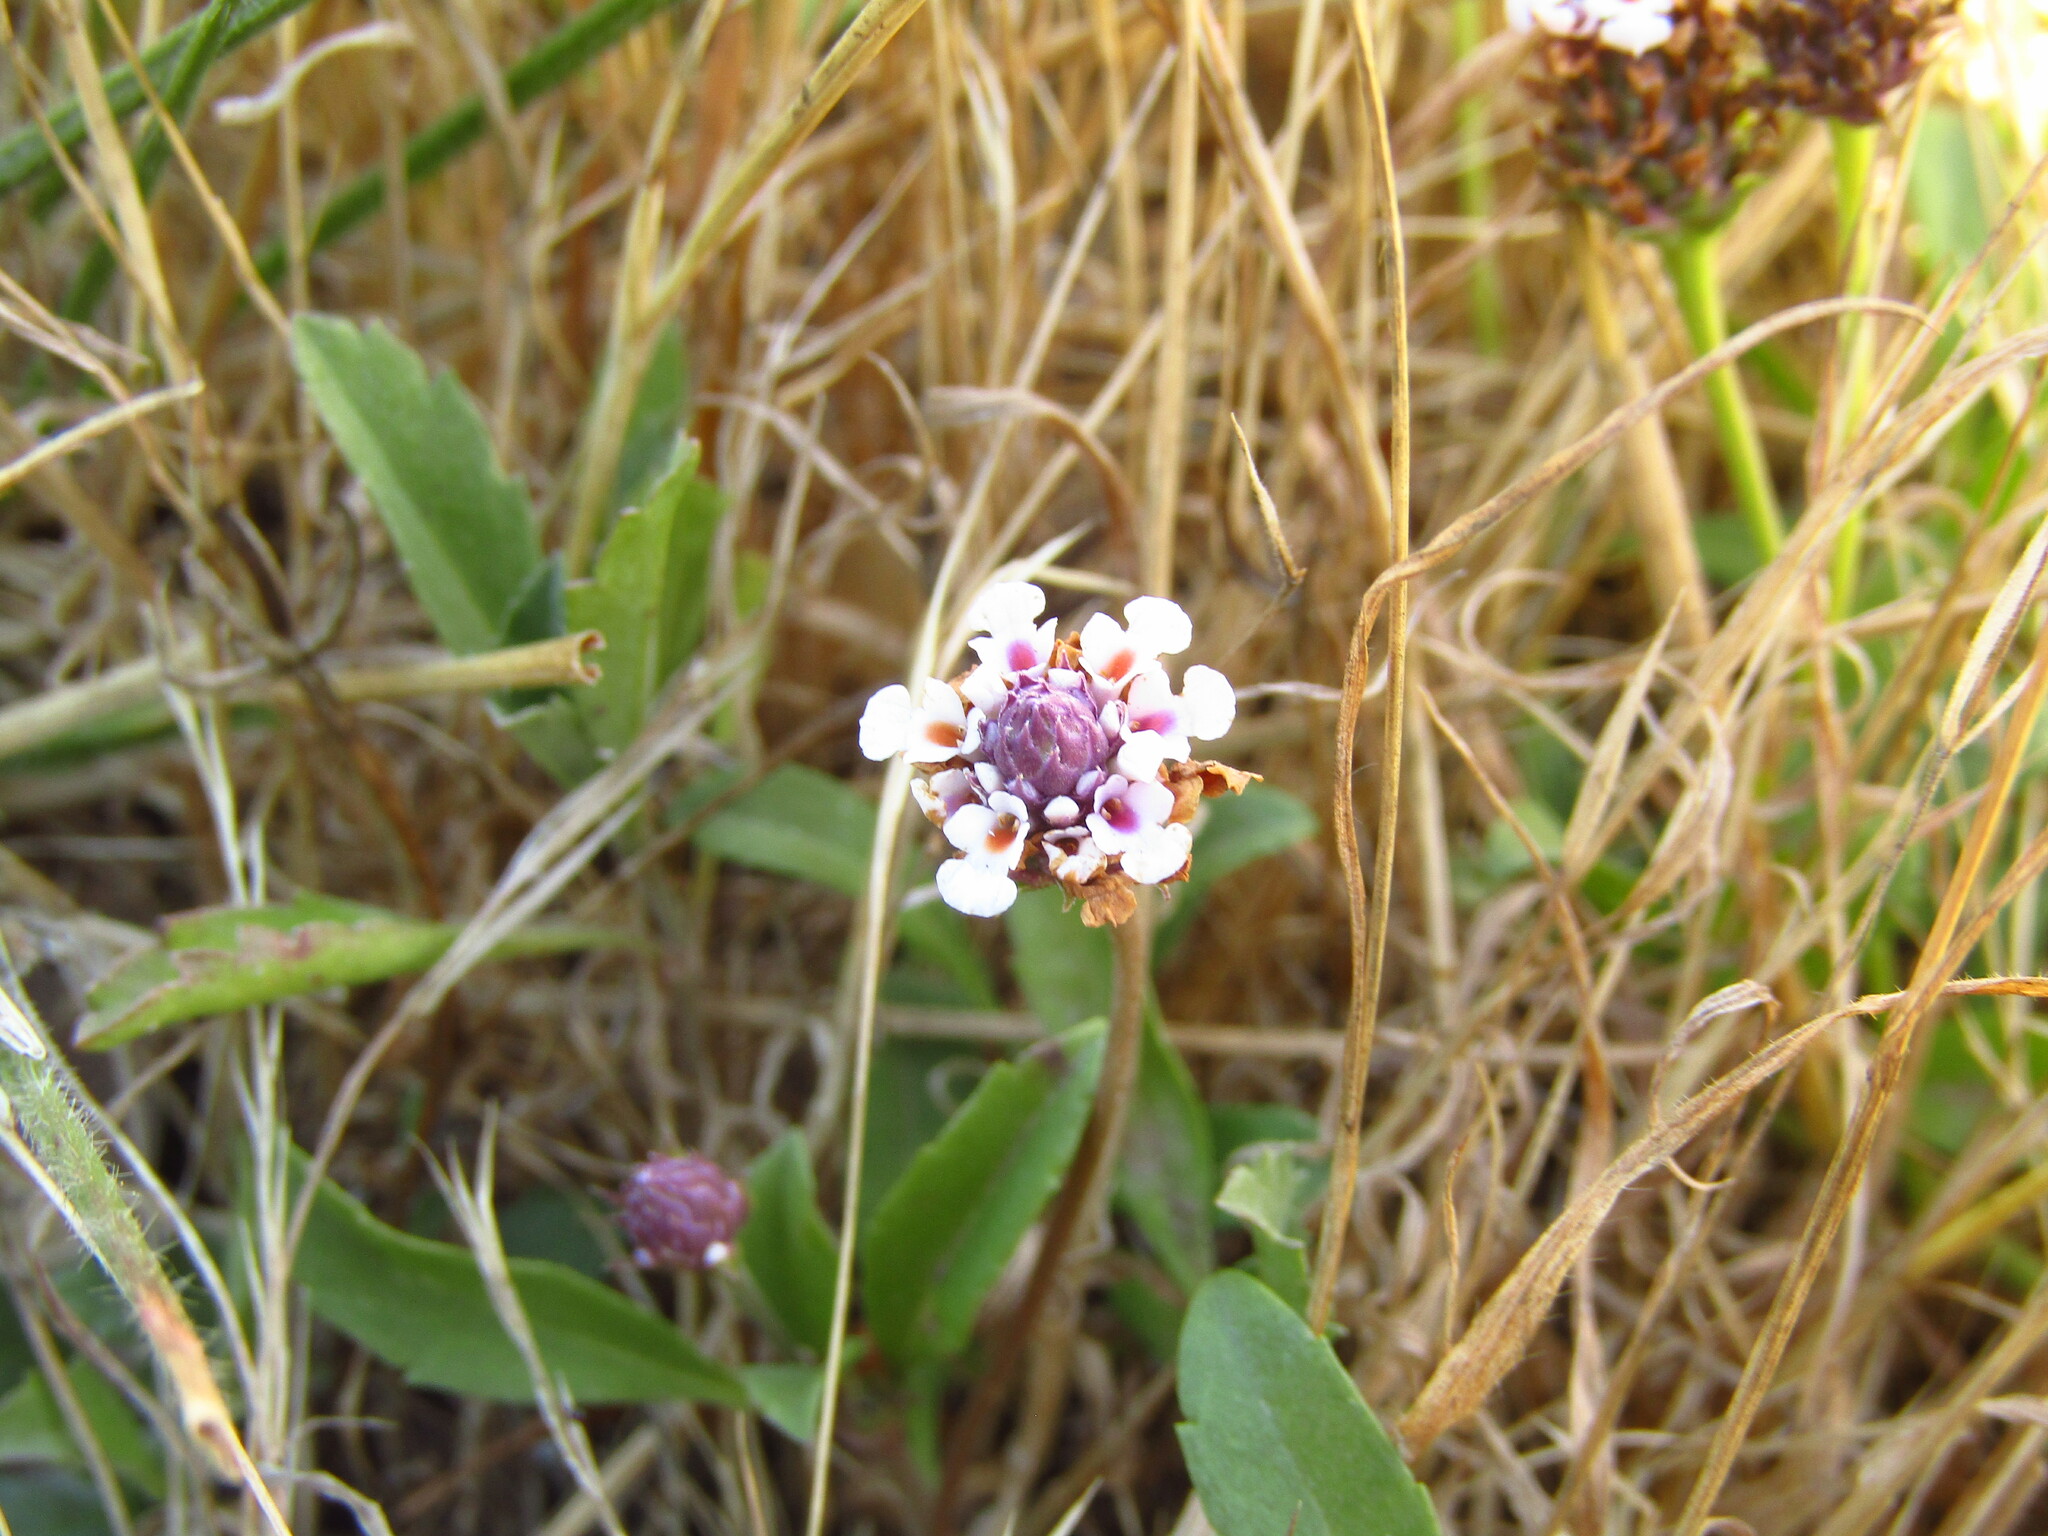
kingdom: Plantae
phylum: Tracheophyta
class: Magnoliopsida
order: Lamiales
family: Verbenaceae
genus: Phyla
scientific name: Phyla nodiflora
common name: Frogfruit
